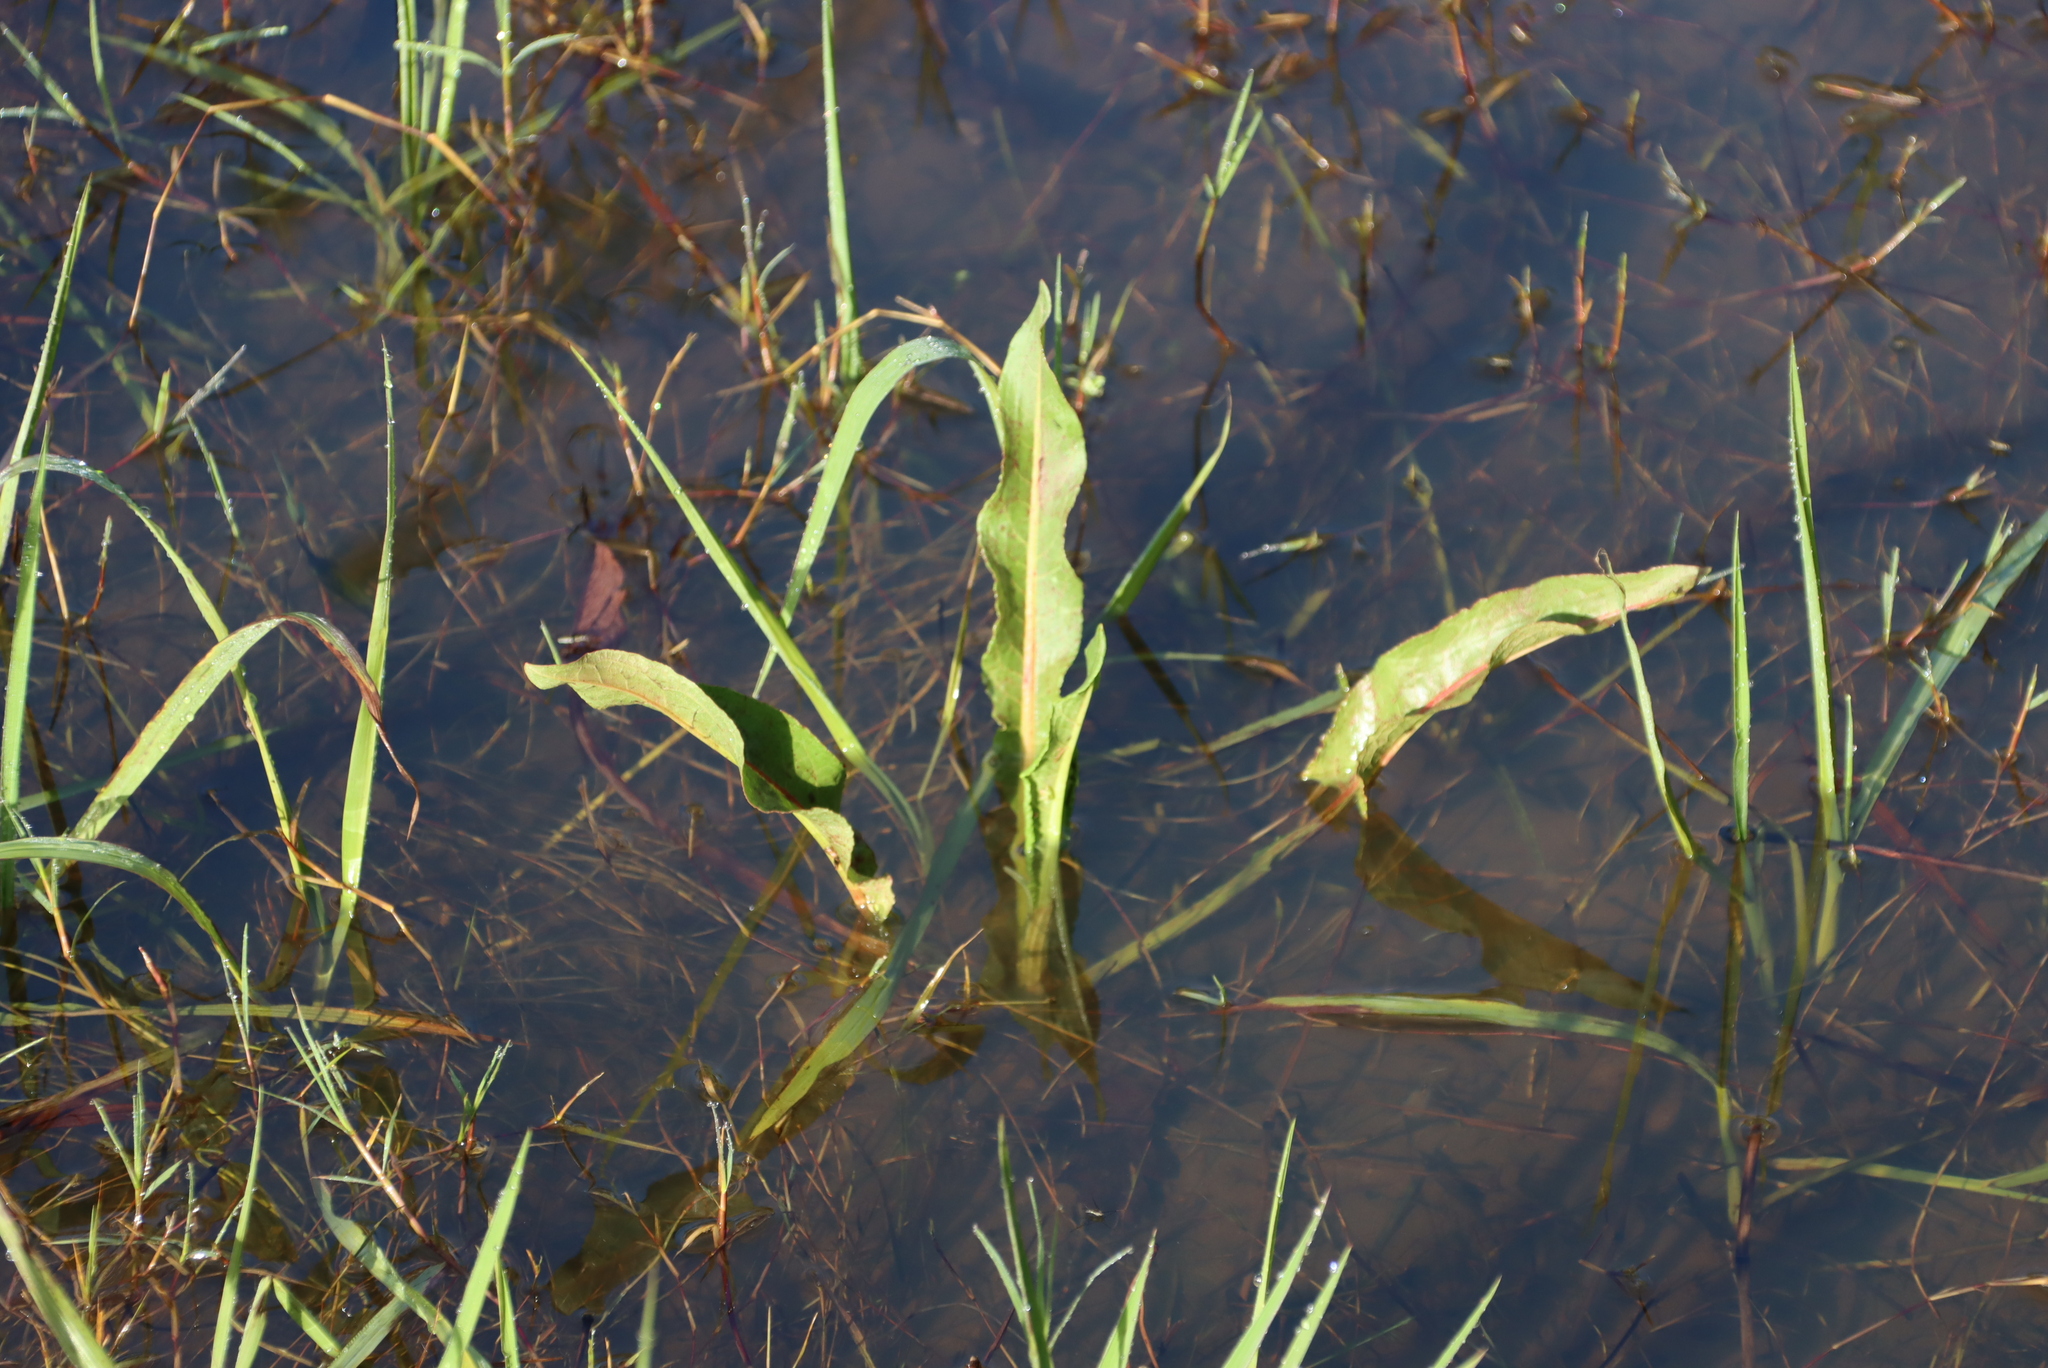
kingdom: Plantae
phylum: Tracheophyta
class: Magnoliopsida
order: Caryophyllales
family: Polygonaceae
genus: Rumex
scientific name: Rumex crispus
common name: Curled dock
